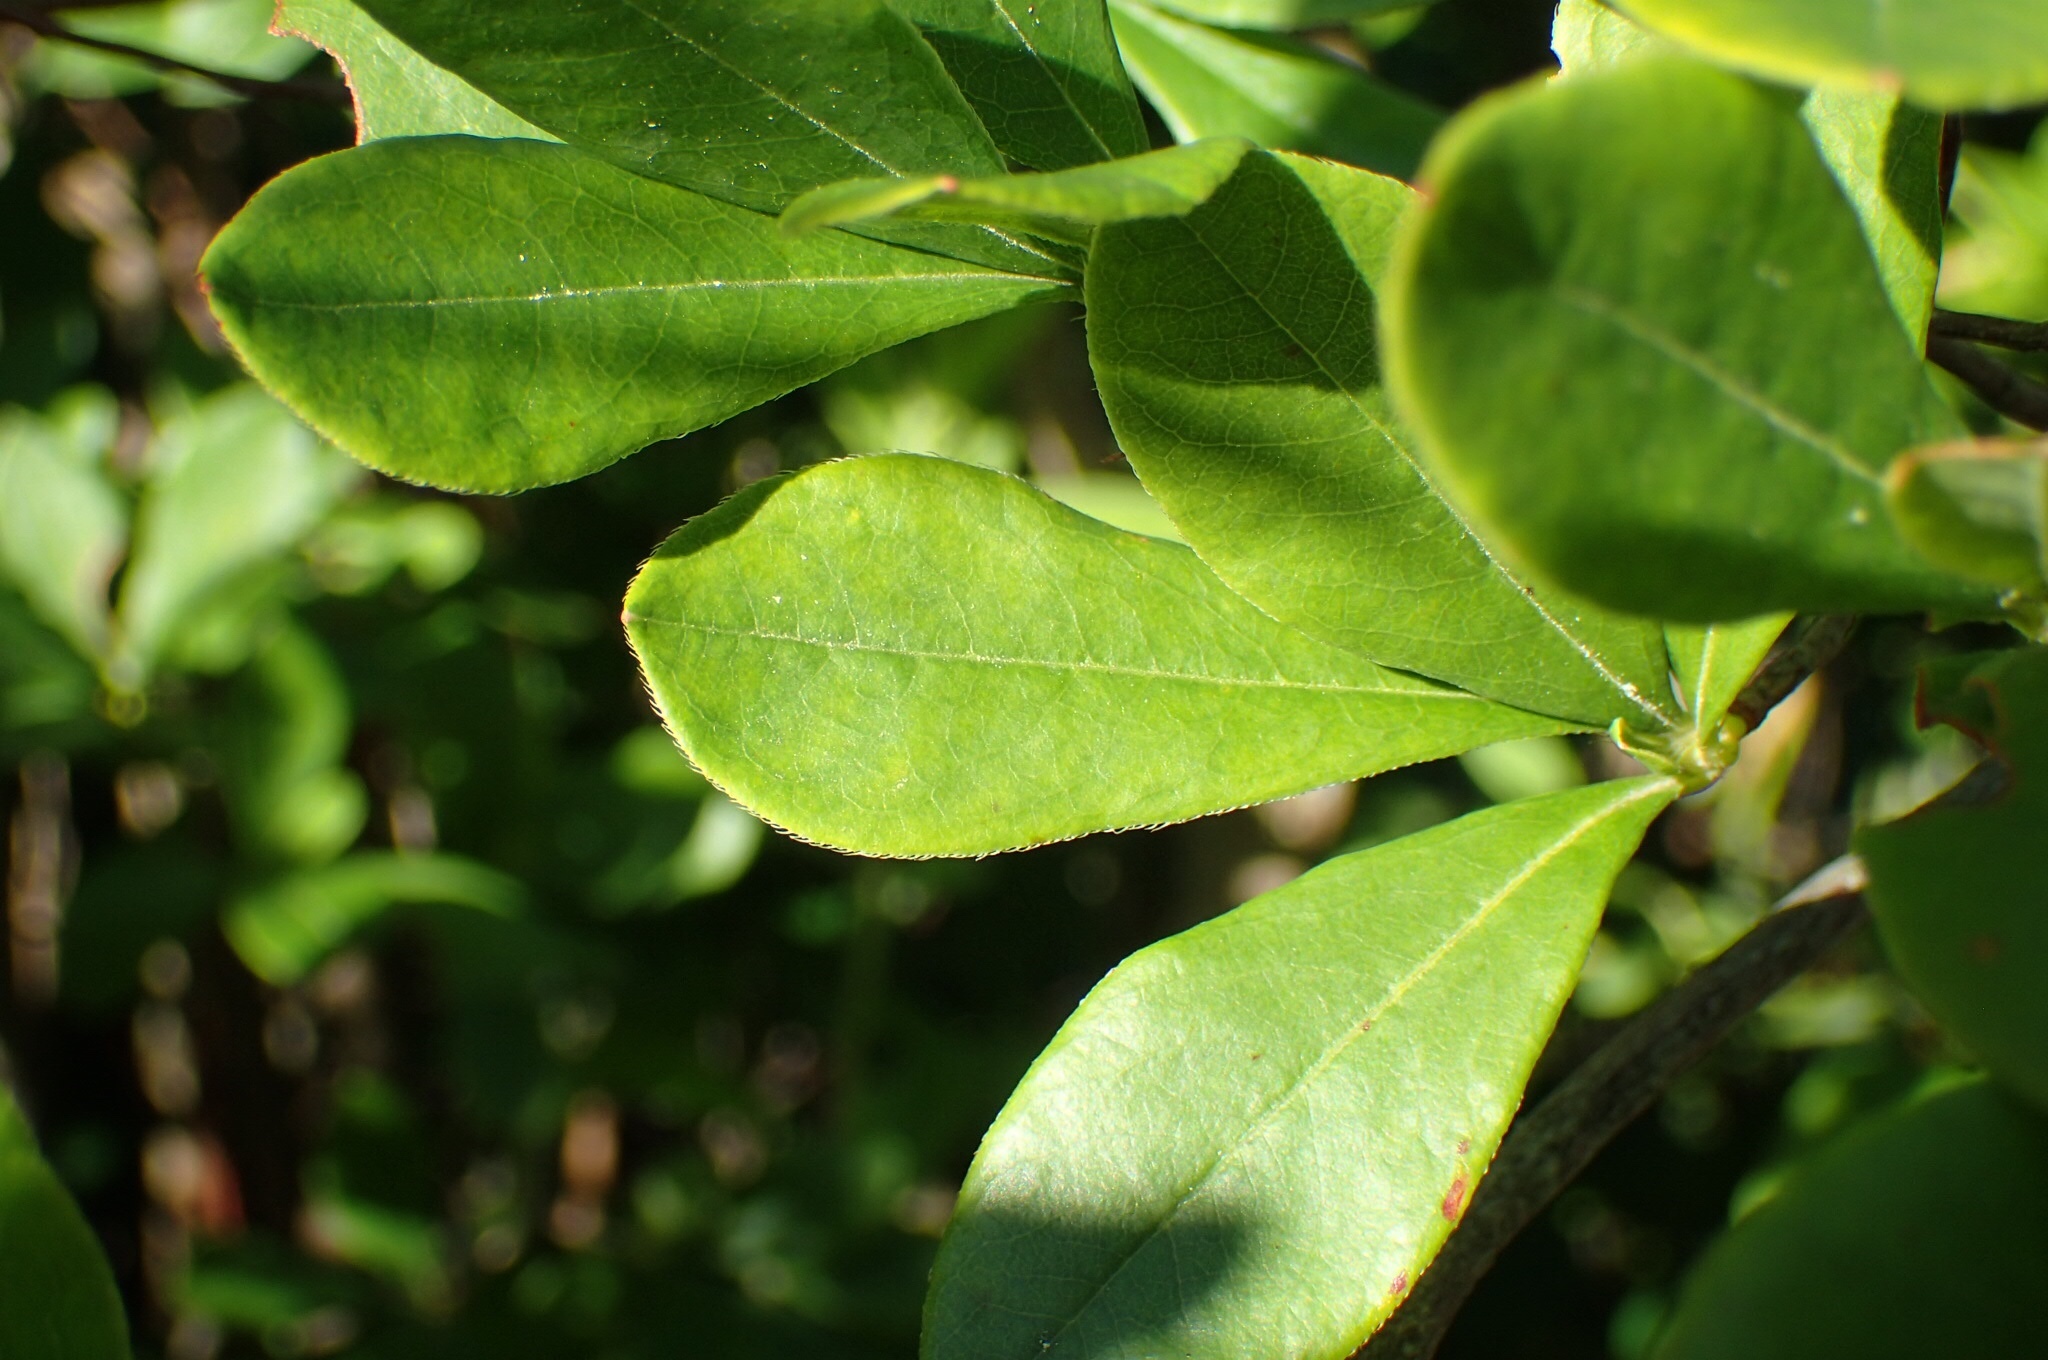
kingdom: Plantae
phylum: Tracheophyta
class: Magnoliopsida
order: Ericales
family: Ericaceae
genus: Rhododendron
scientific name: Rhododendron viscosum
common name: Clammy azalea
